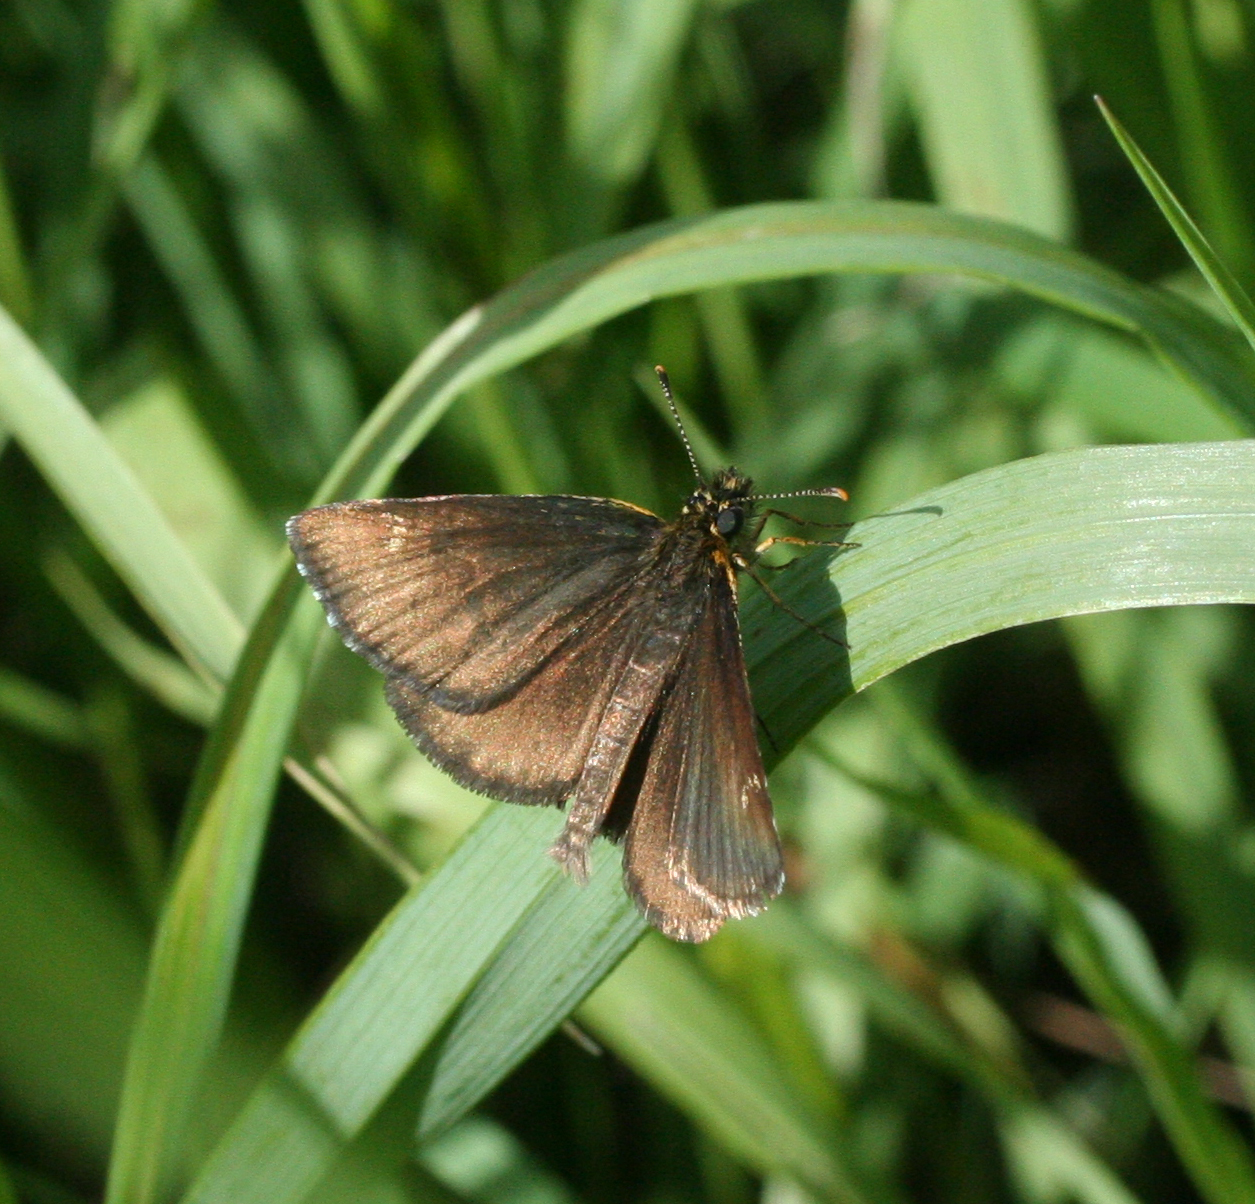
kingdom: Animalia
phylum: Arthropoda
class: Insecta
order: Lepidoptera
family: Hesperiidae
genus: Heteropterus
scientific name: Heteropterus morpheus
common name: Large chequered skipper
